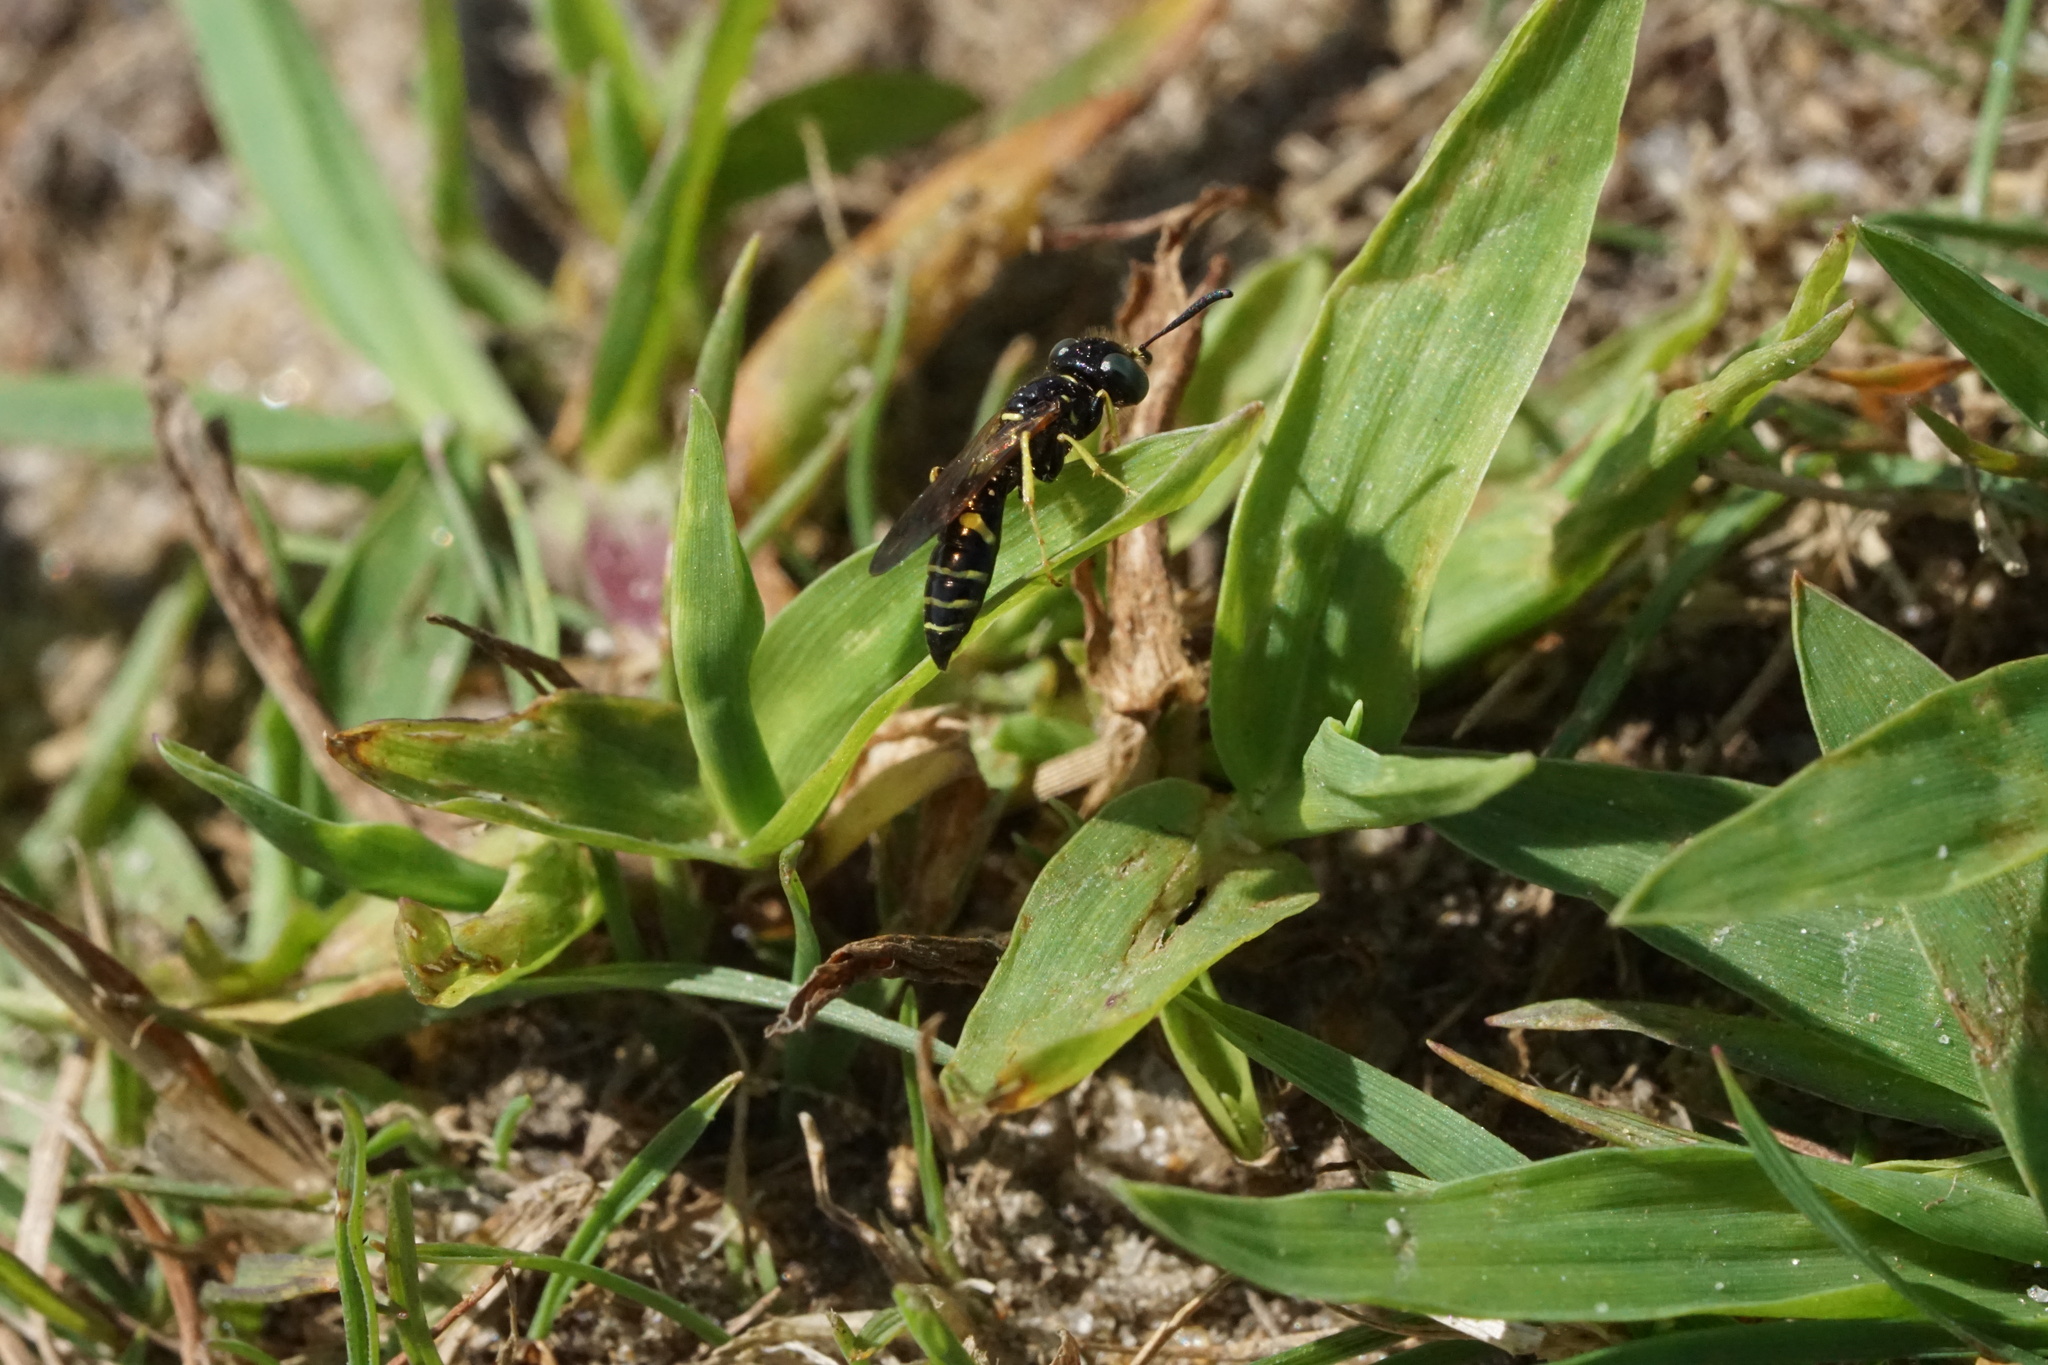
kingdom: Animalia
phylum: Arthropoda
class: Insecta
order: Hymenoptera
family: Crabronidae
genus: Philanthus
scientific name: Philanthus lepidus
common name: Pleasant beewolf
